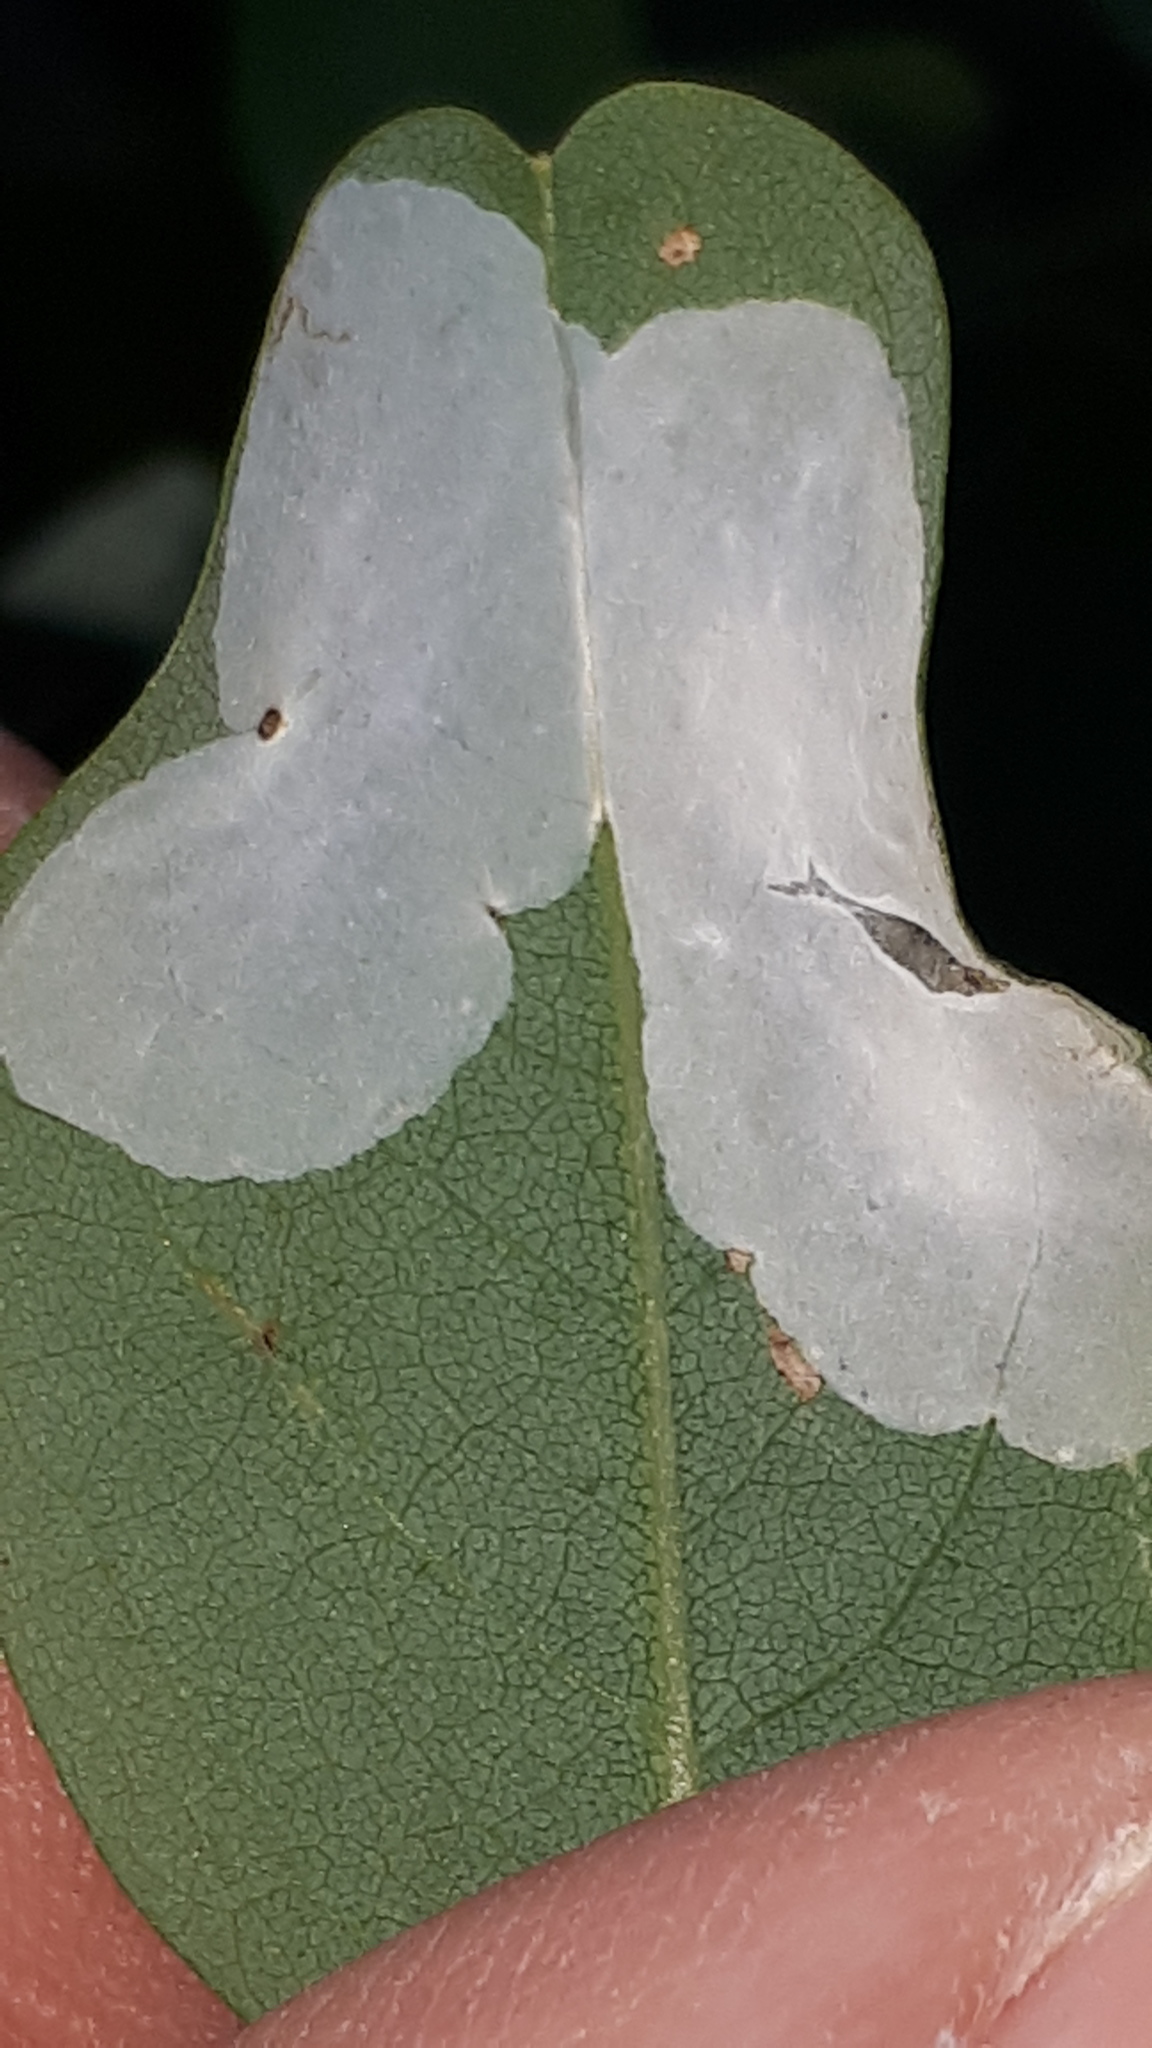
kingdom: Animalia
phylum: Arthropoda
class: Insecta
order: Lepidoptera
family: Gracillariidae
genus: Macrosaccus
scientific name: Macrosaccus robiniella
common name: Leaf blotch miner moth
